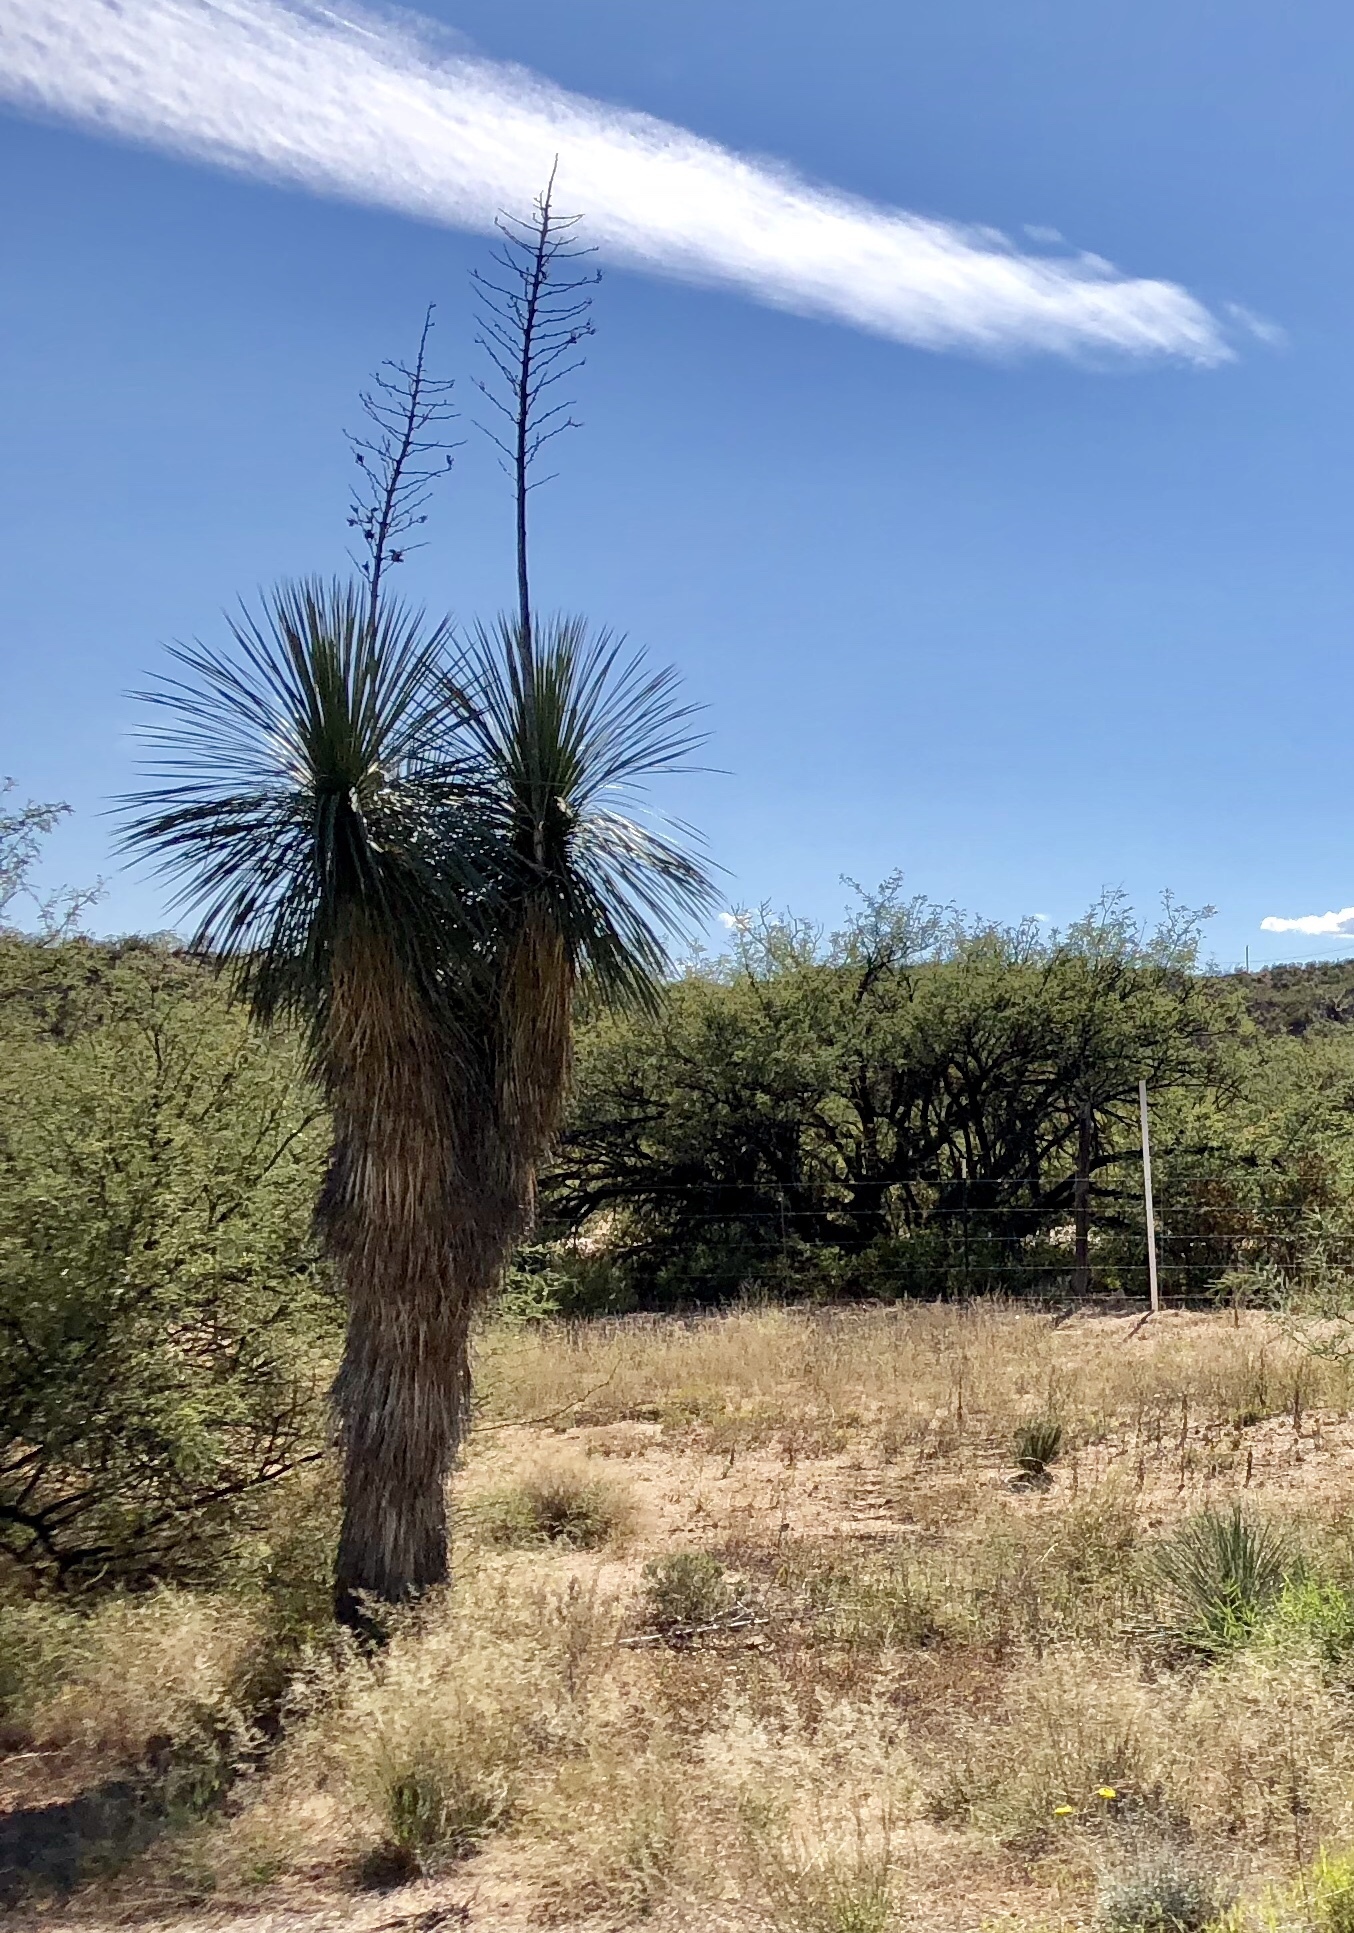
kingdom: Plantae
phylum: Tracheophyta
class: Liliopsida
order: Asparagales
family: Asparagaceae
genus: Yucca
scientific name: Yucca elata
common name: Palmella
